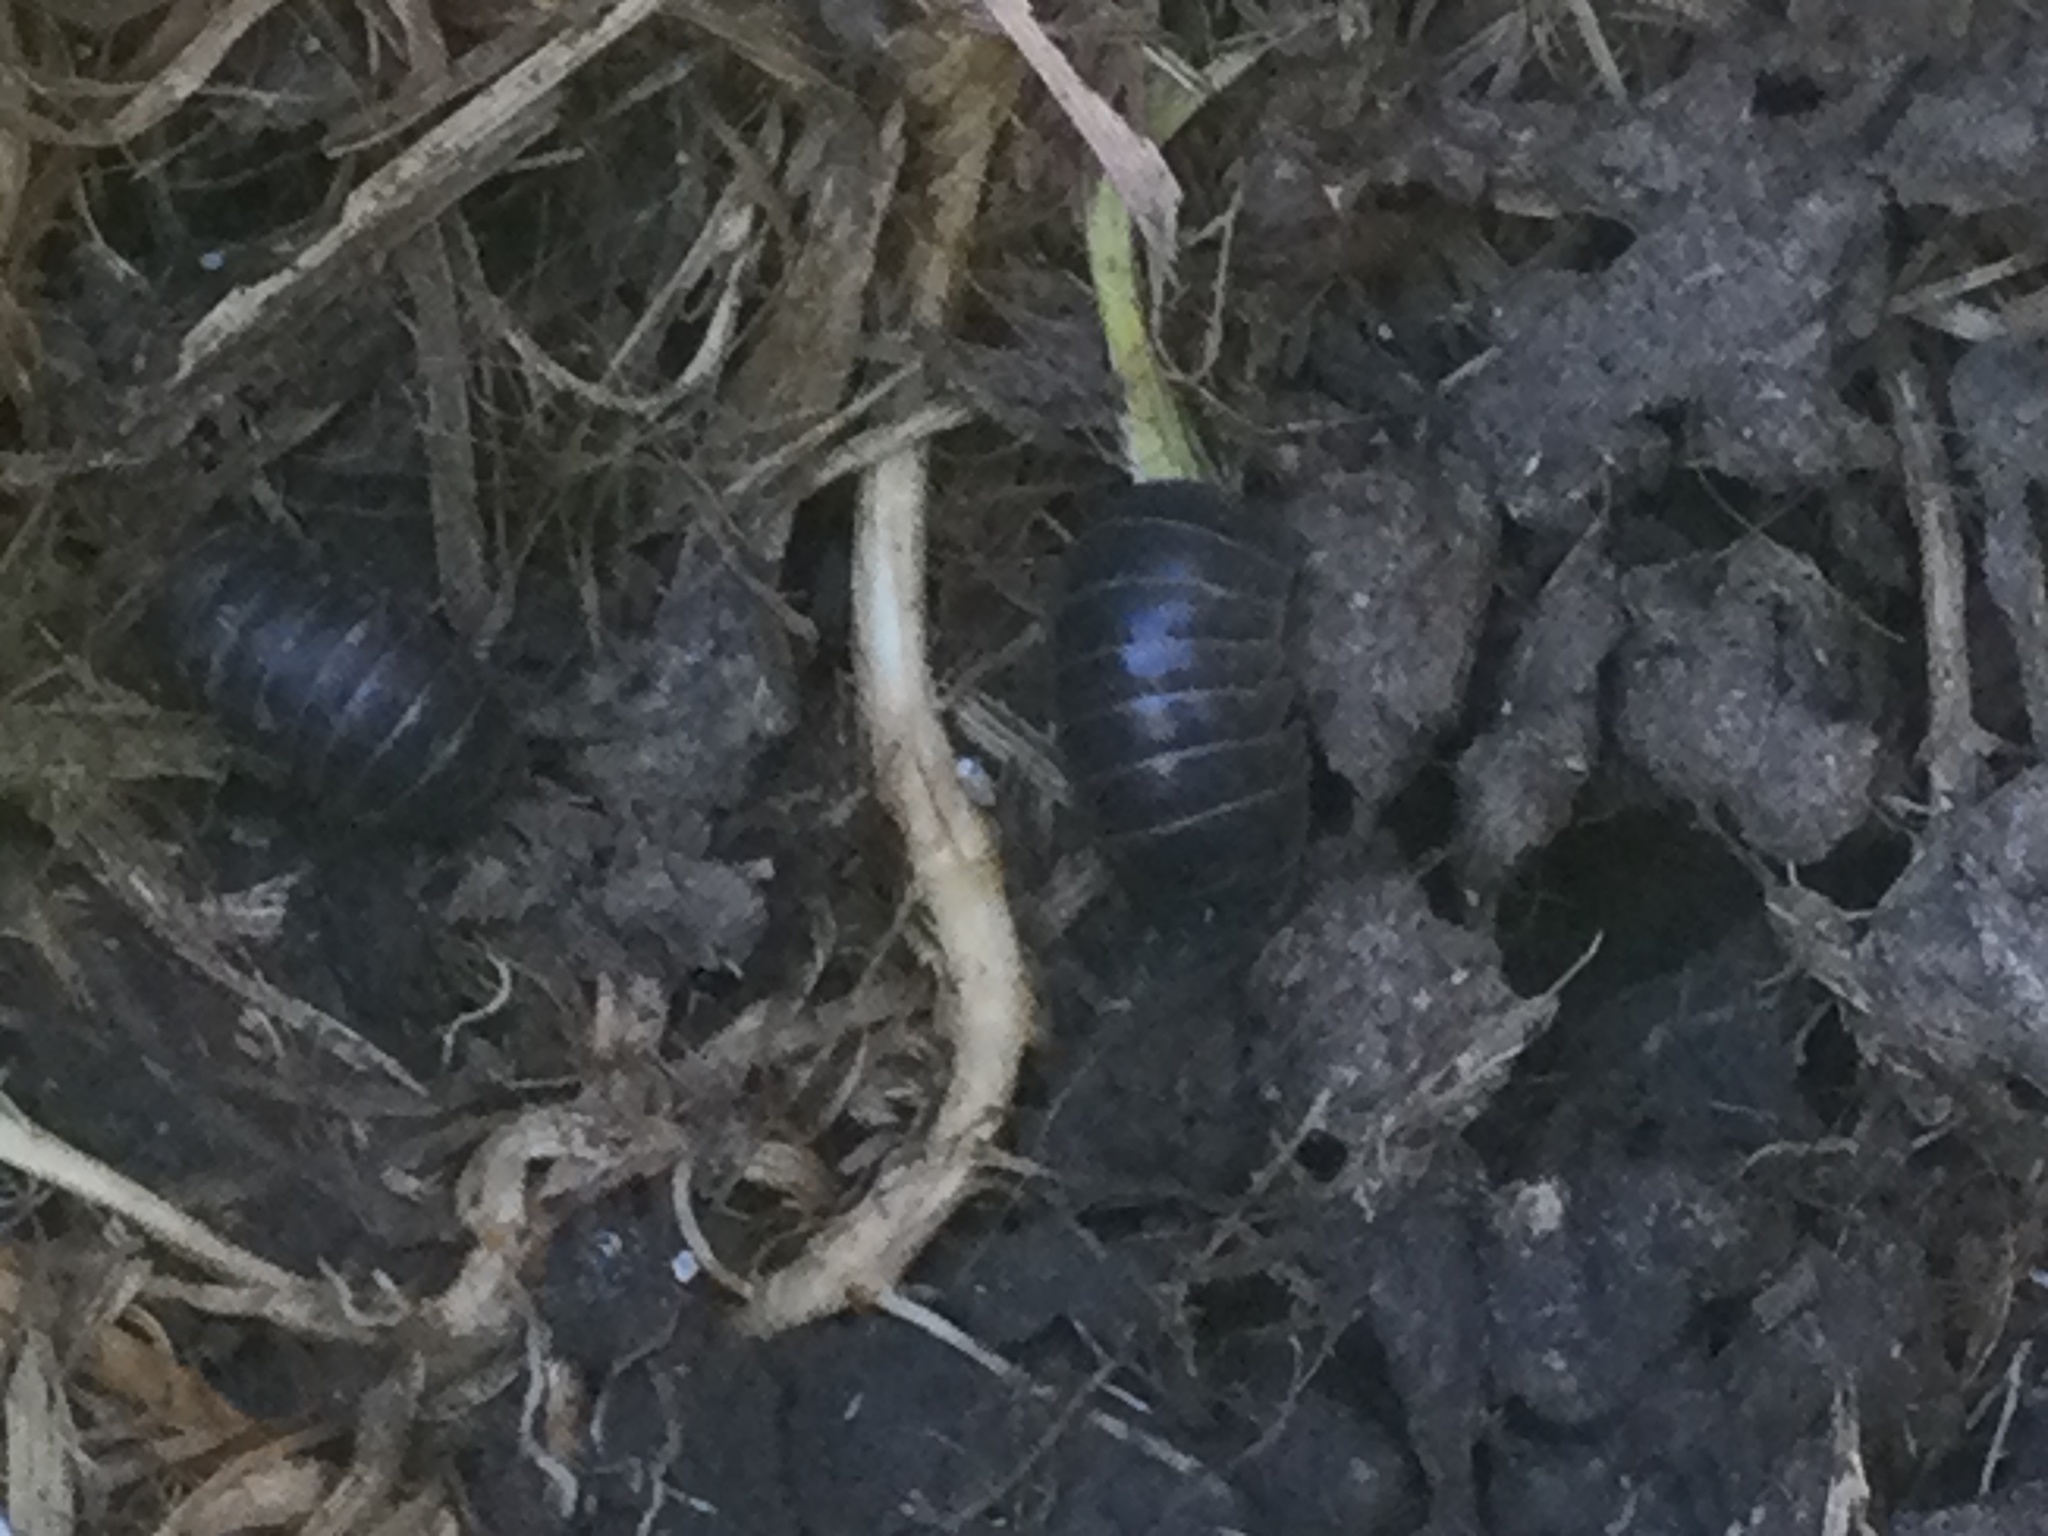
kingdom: Animalia
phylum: Arthropoda
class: Malacostraca
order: Isopoda
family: Armadillidiidae
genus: Armadillidium
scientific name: Armadillidium vulgare
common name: Common pill woodlouse
